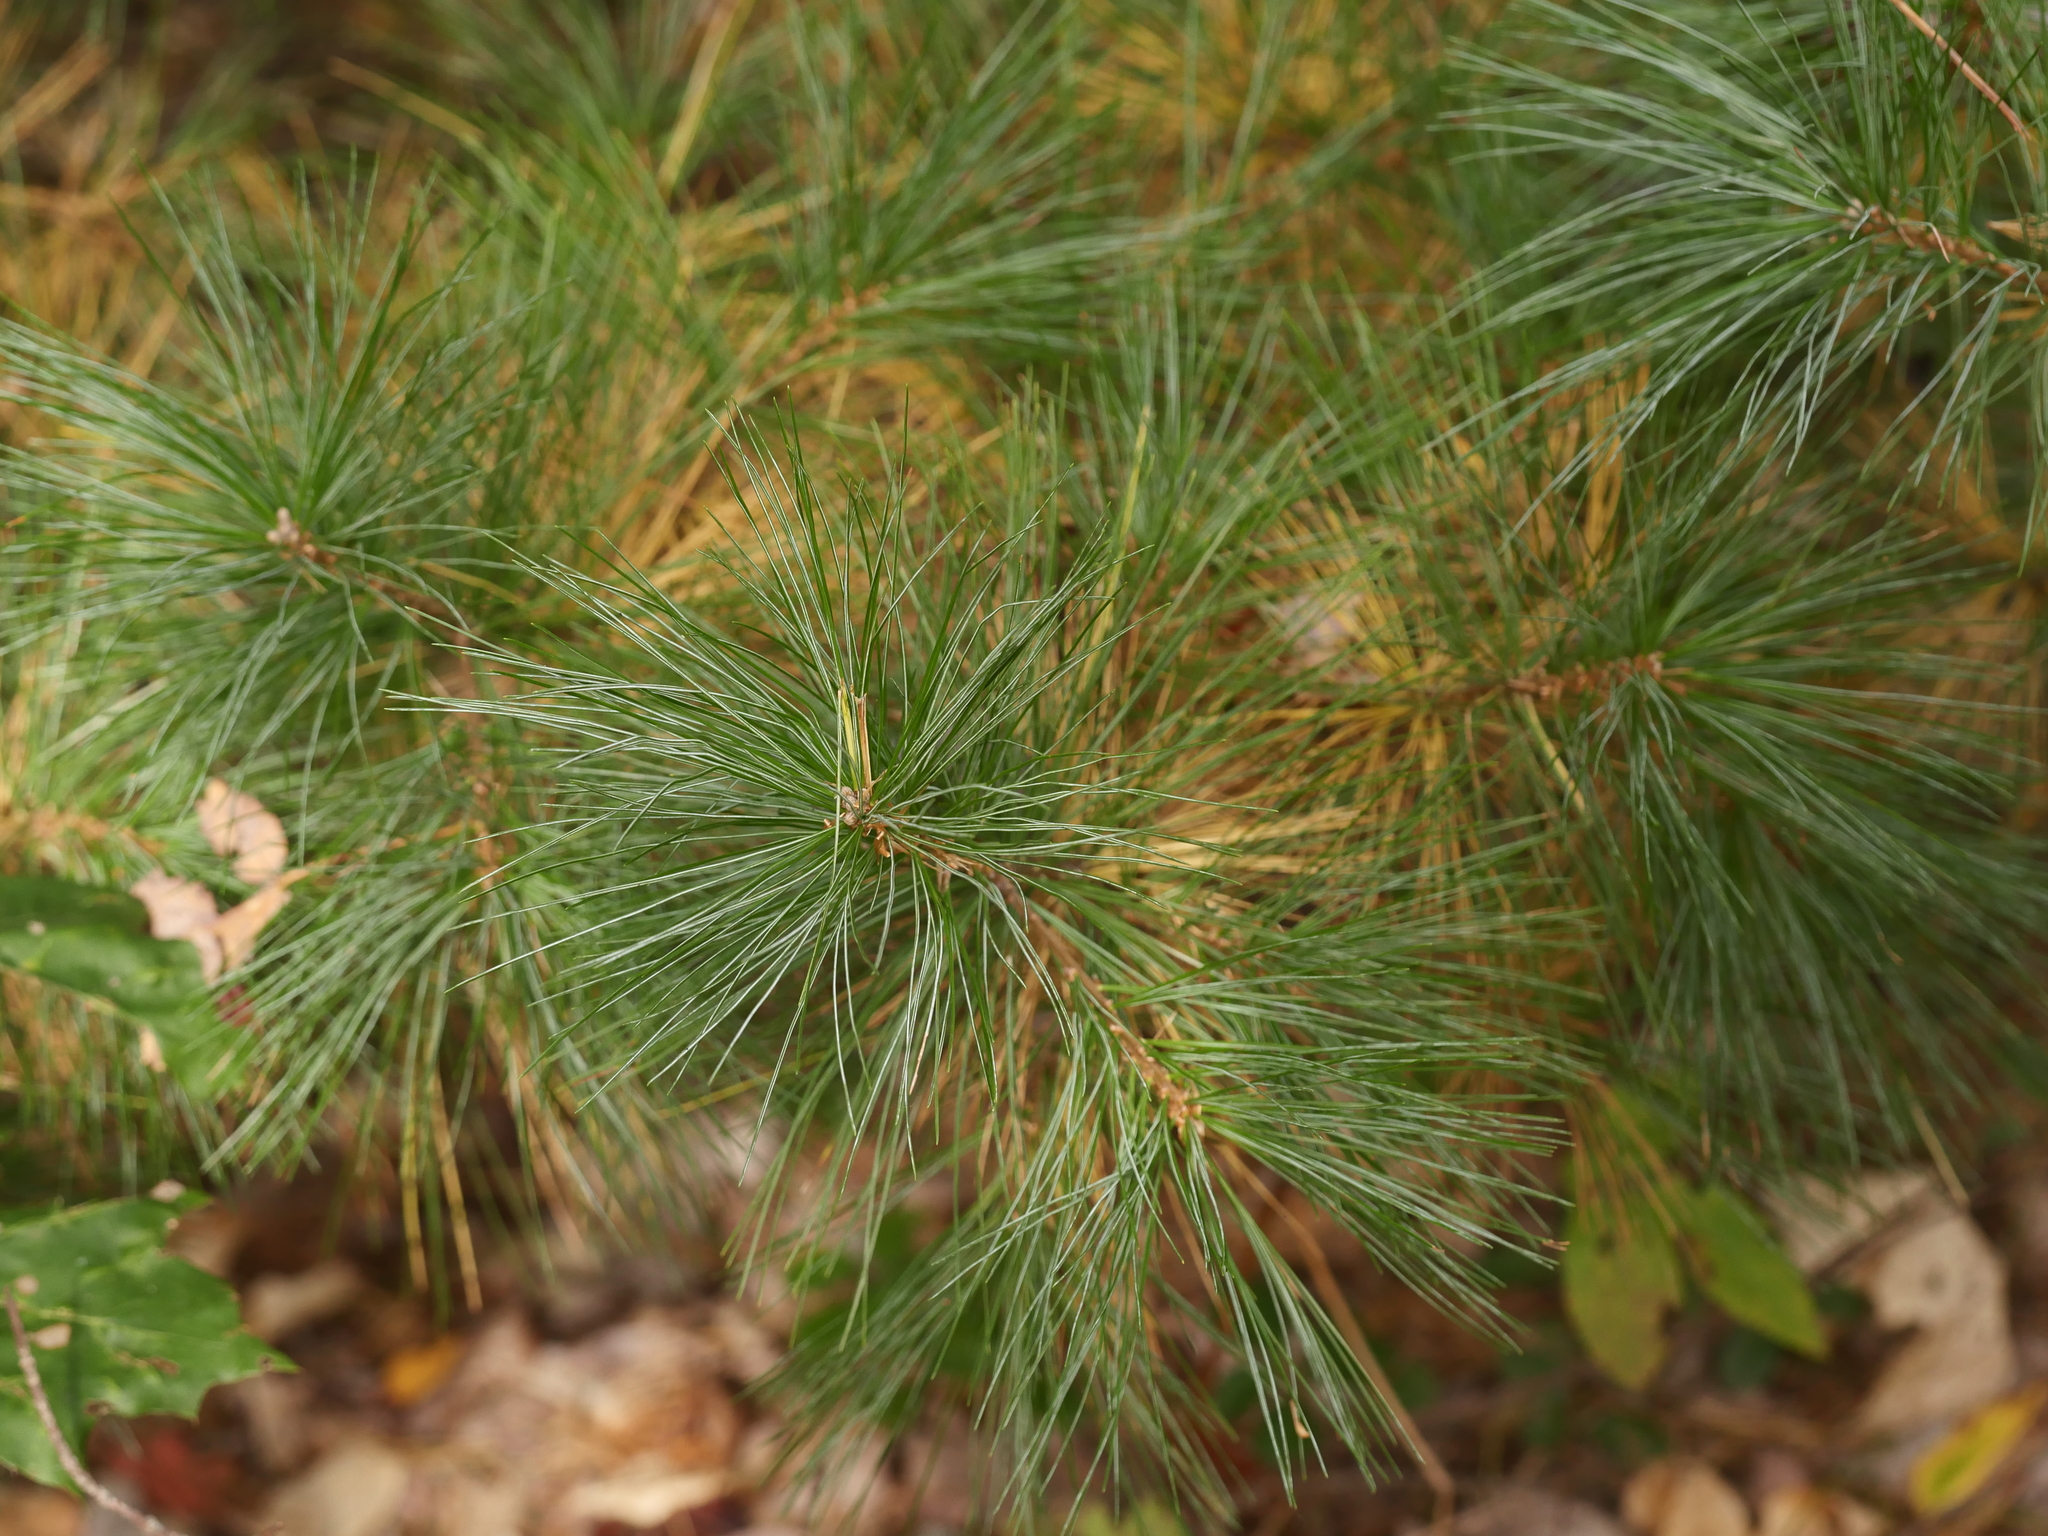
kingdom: Plantae
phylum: Tracheophyta
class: Pinopsida
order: Pinales
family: Pinaceae
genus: Pinus
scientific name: Pinus strobus
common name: Weymouth pine
